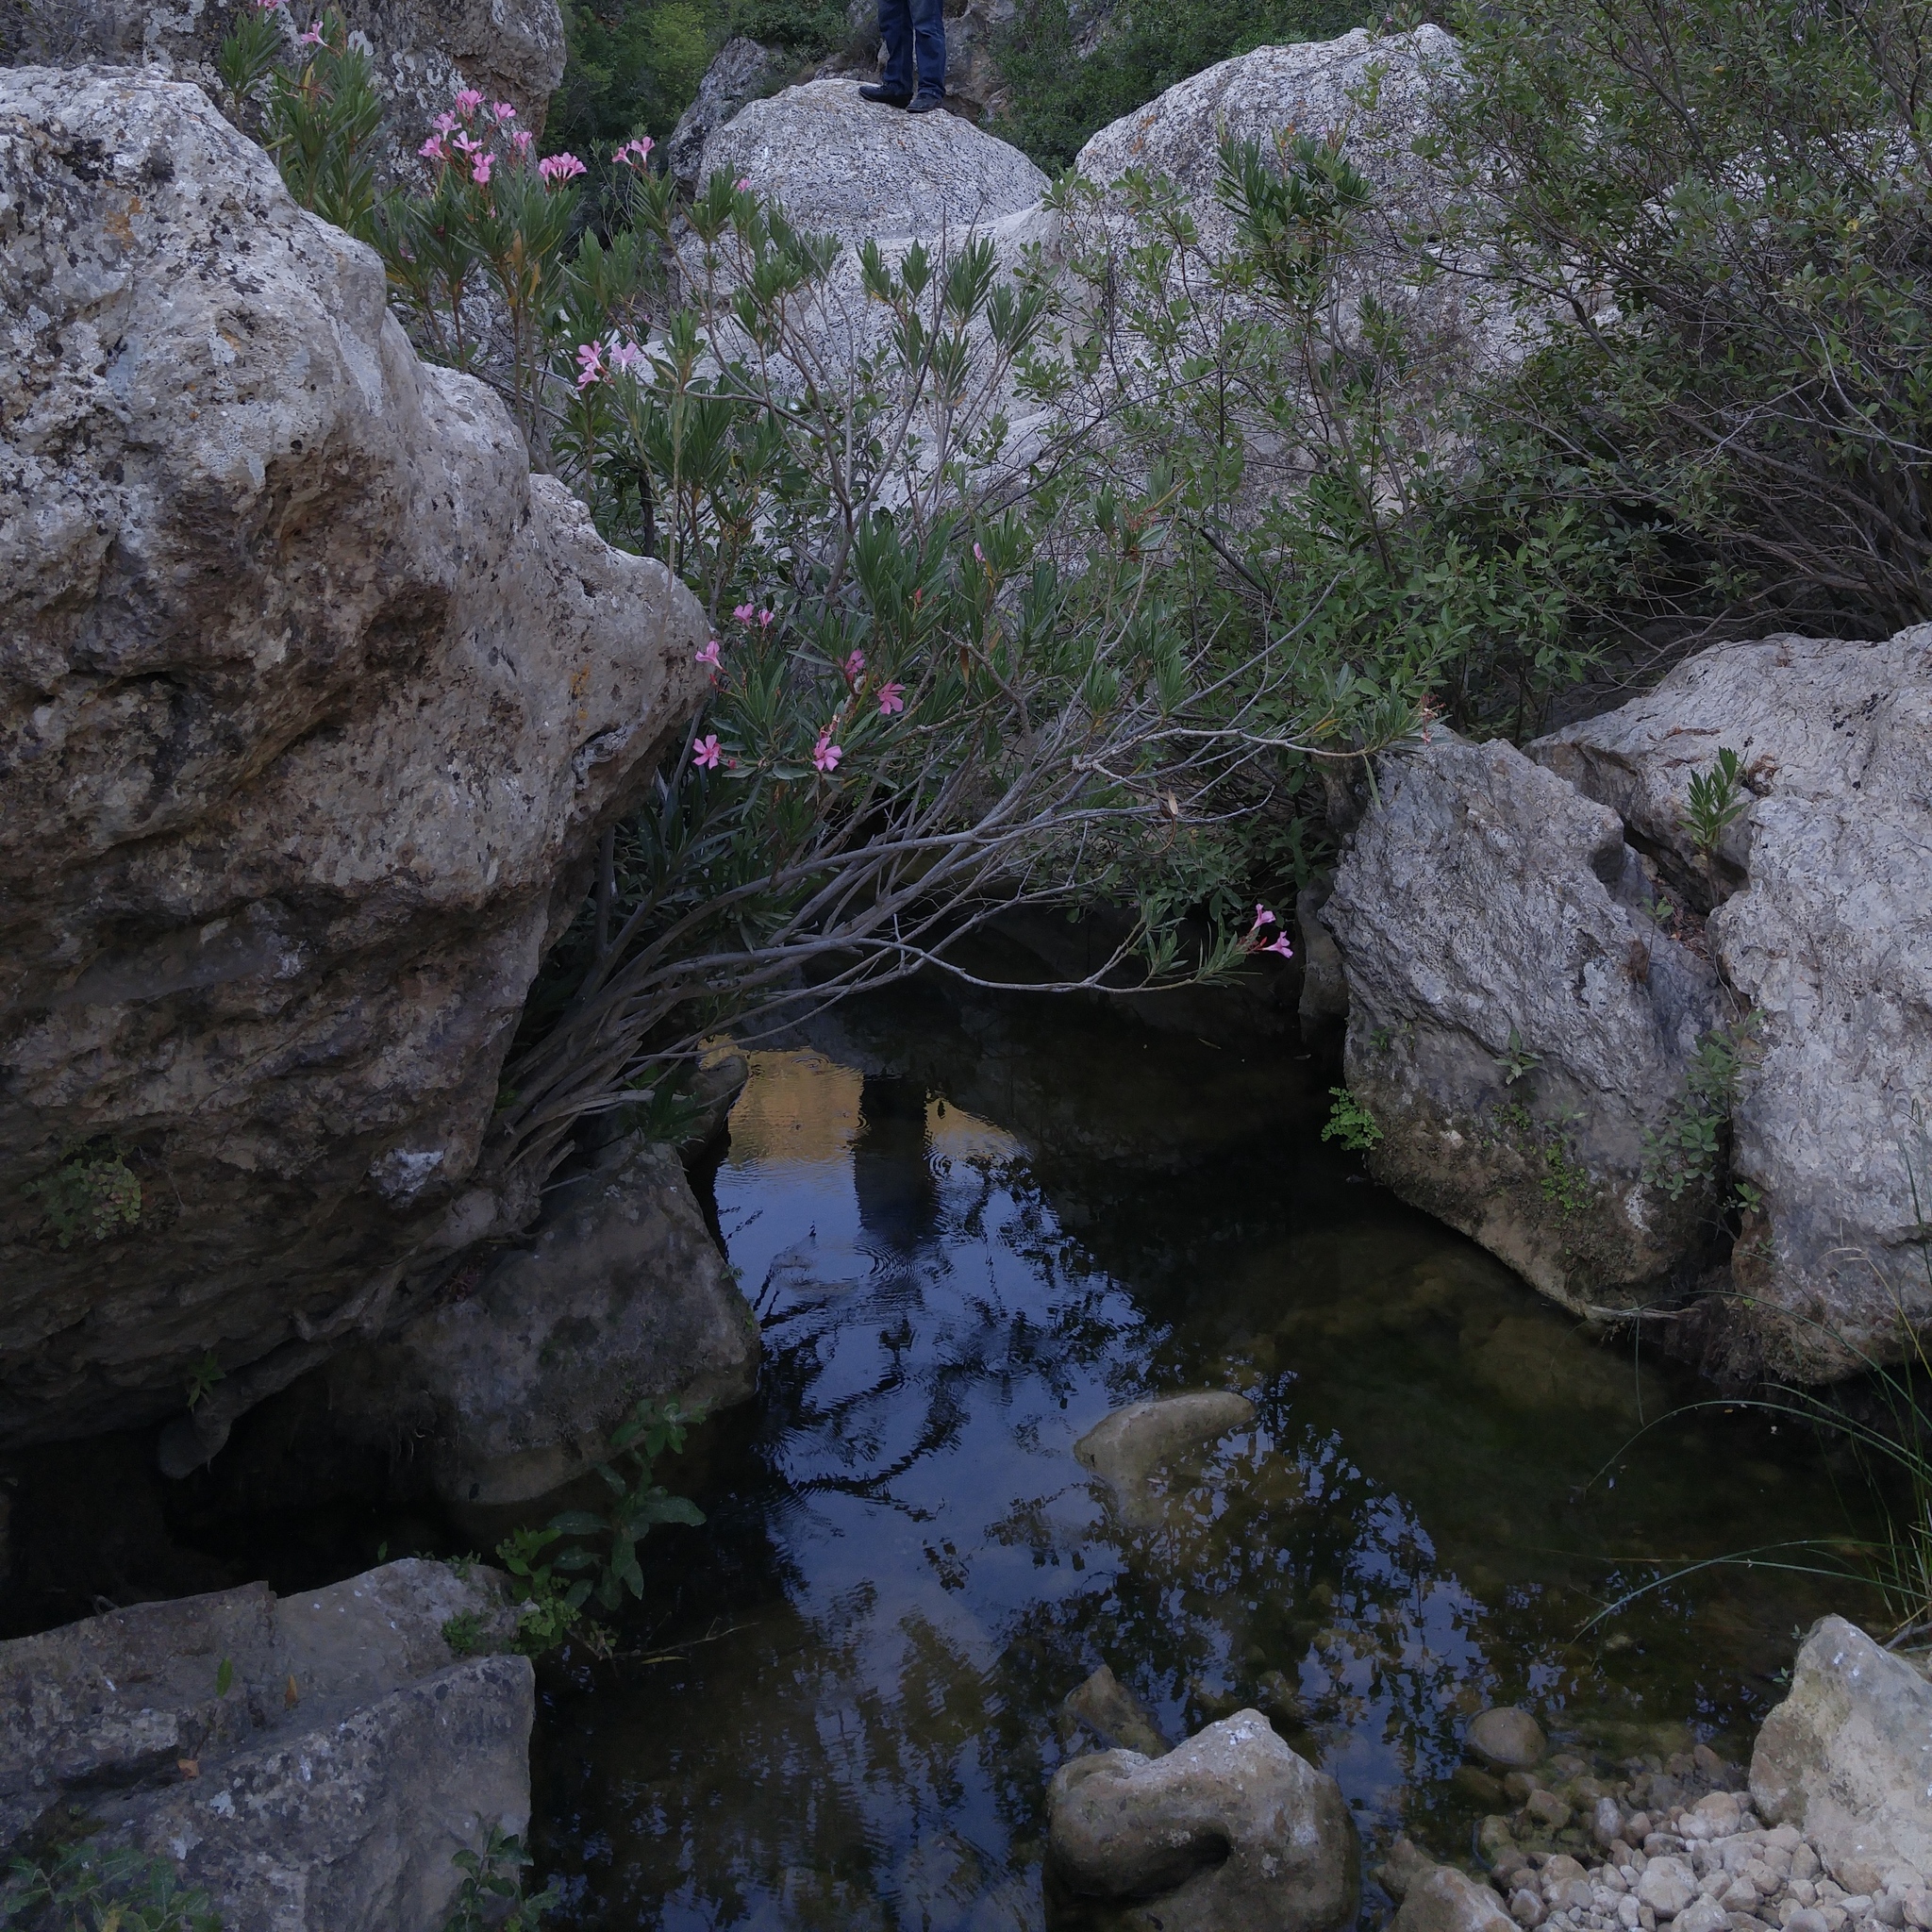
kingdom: Plantae
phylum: Tracheophyta
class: Magnoliopsida
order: Gentianales
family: Apocynaceae
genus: Nerium
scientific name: Nerium oleander
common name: Oleander
